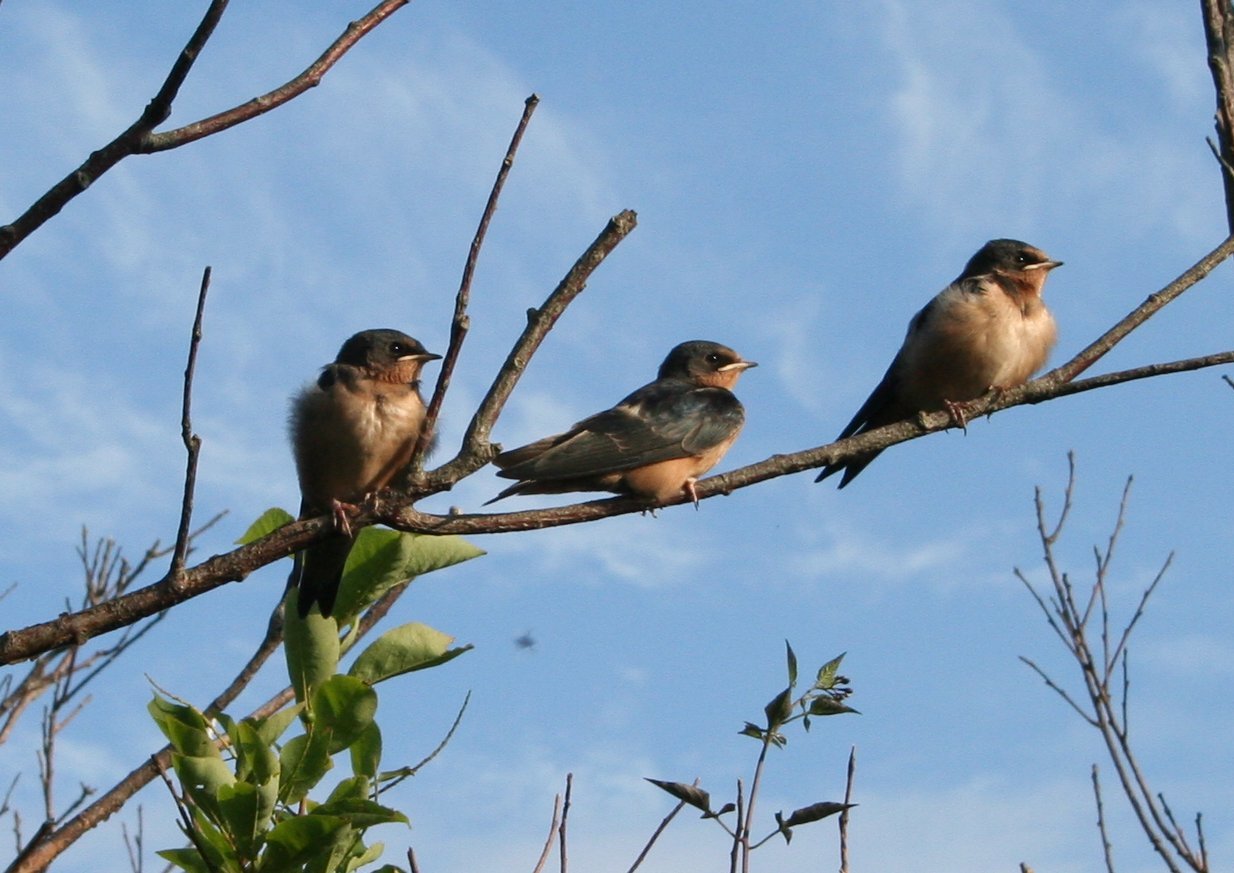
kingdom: Animalia
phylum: Chordata
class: Aves
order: Passeriformes
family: Hirundinidae
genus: Hirundo
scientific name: Hirundo rustica
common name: Barn swallow
